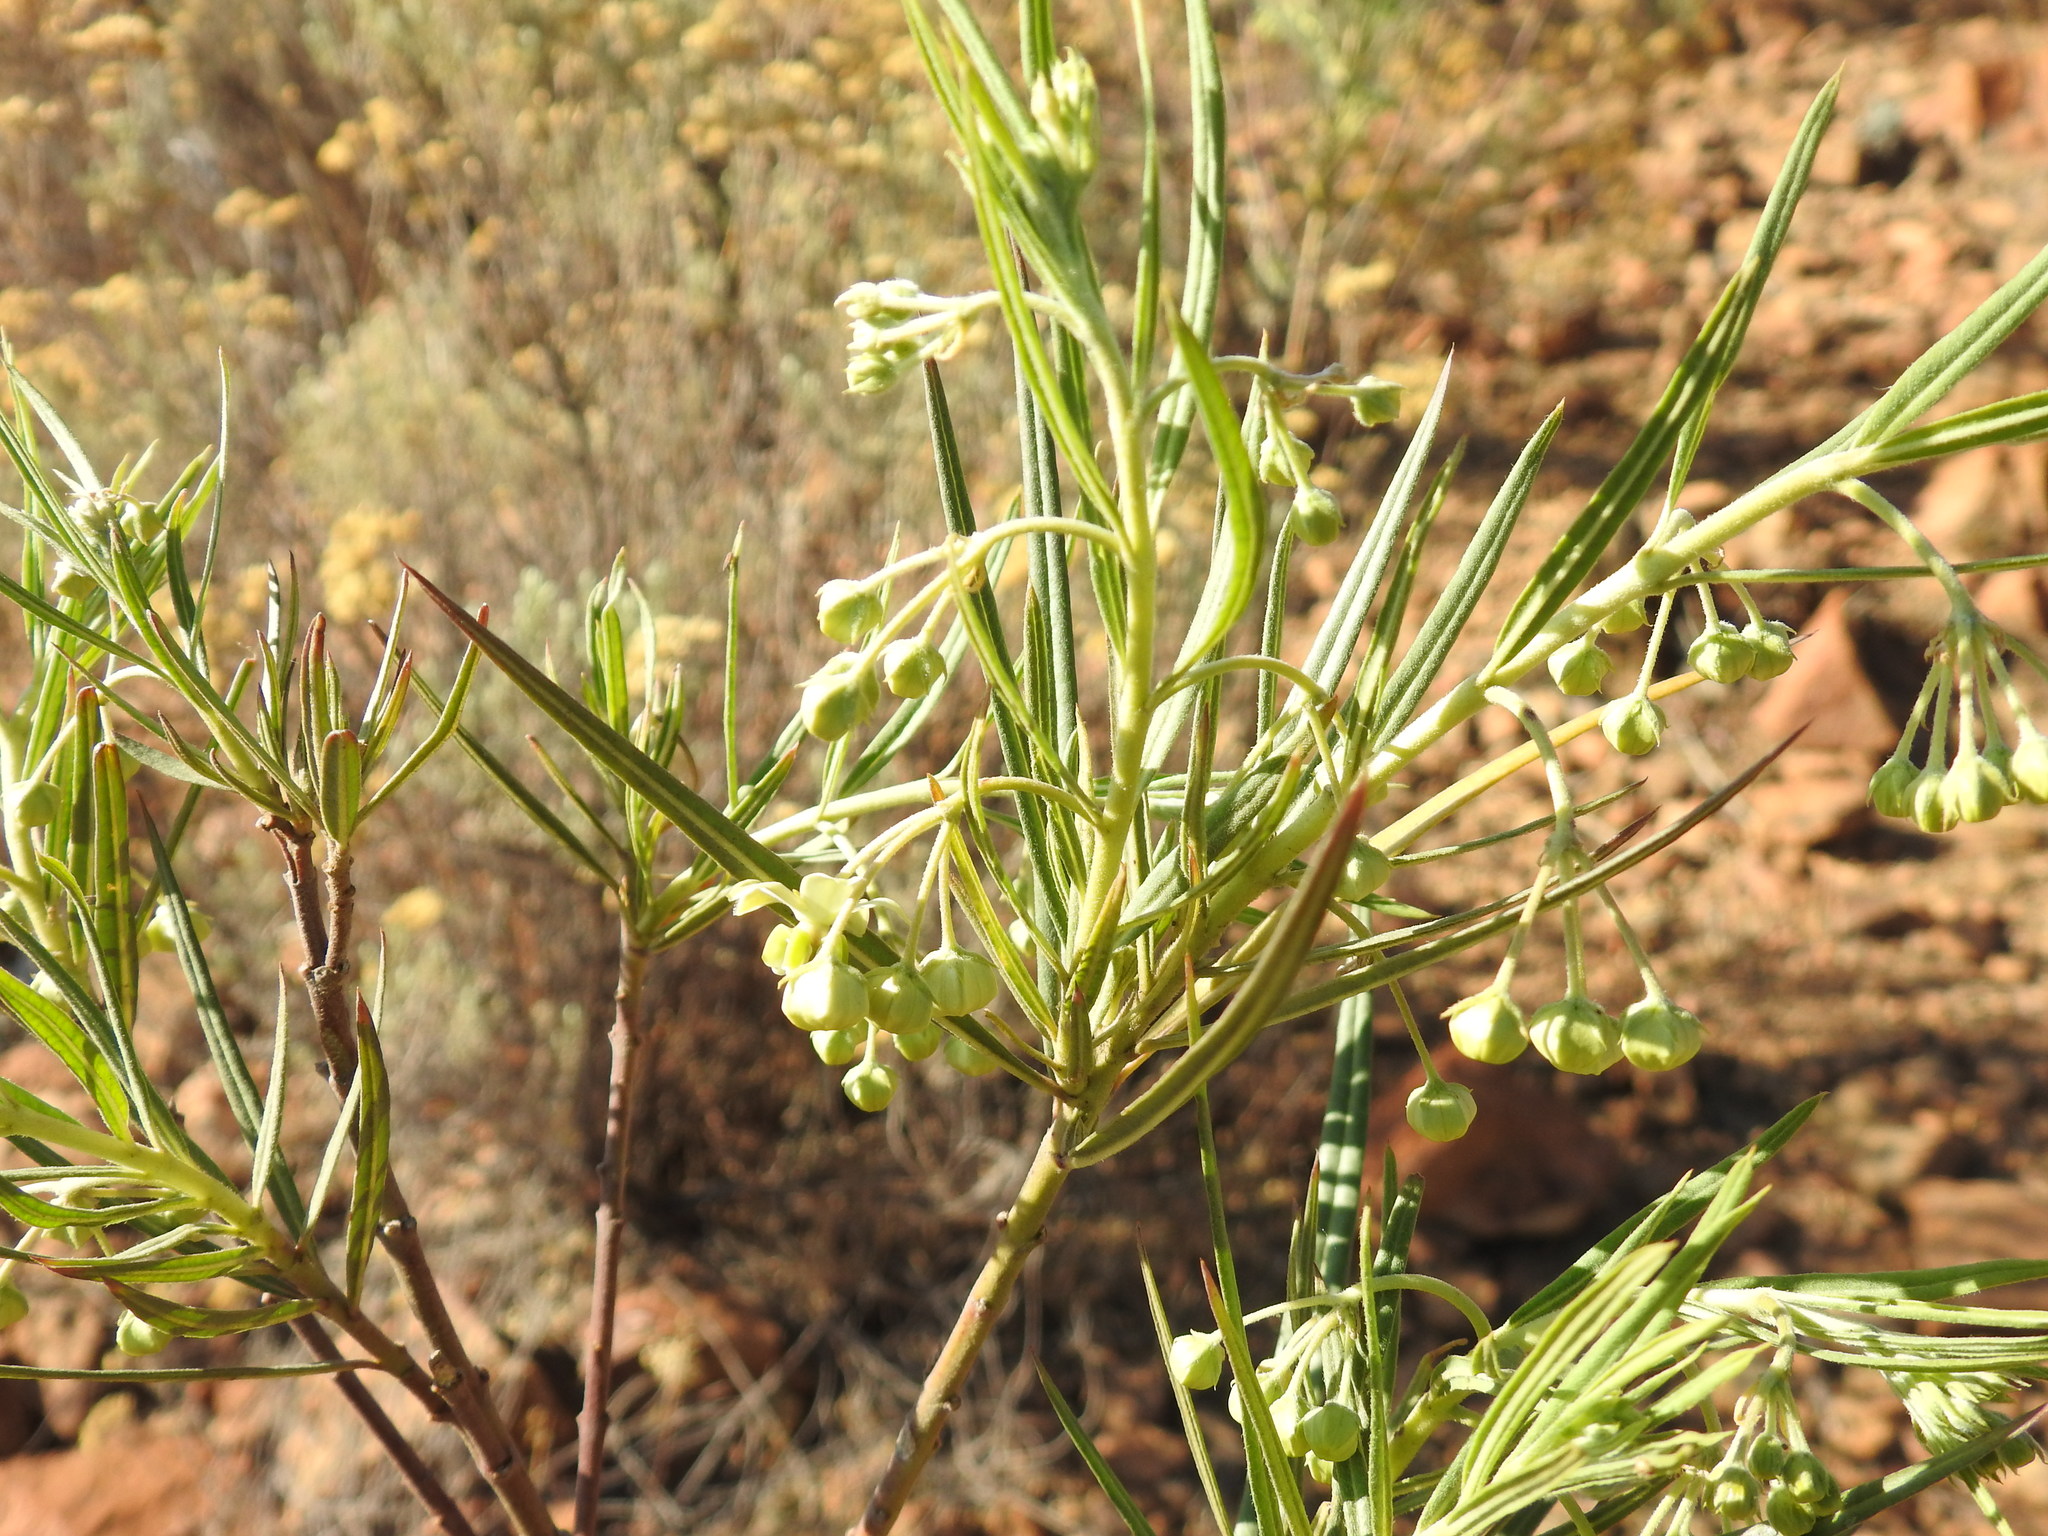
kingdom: Plantae
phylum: Tracheophyta
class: Magnoliopsida
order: Gentianales
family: Apocynaceae
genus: Gomphocarpus
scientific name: Gomphocarpus fruticosus
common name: Milkweed
